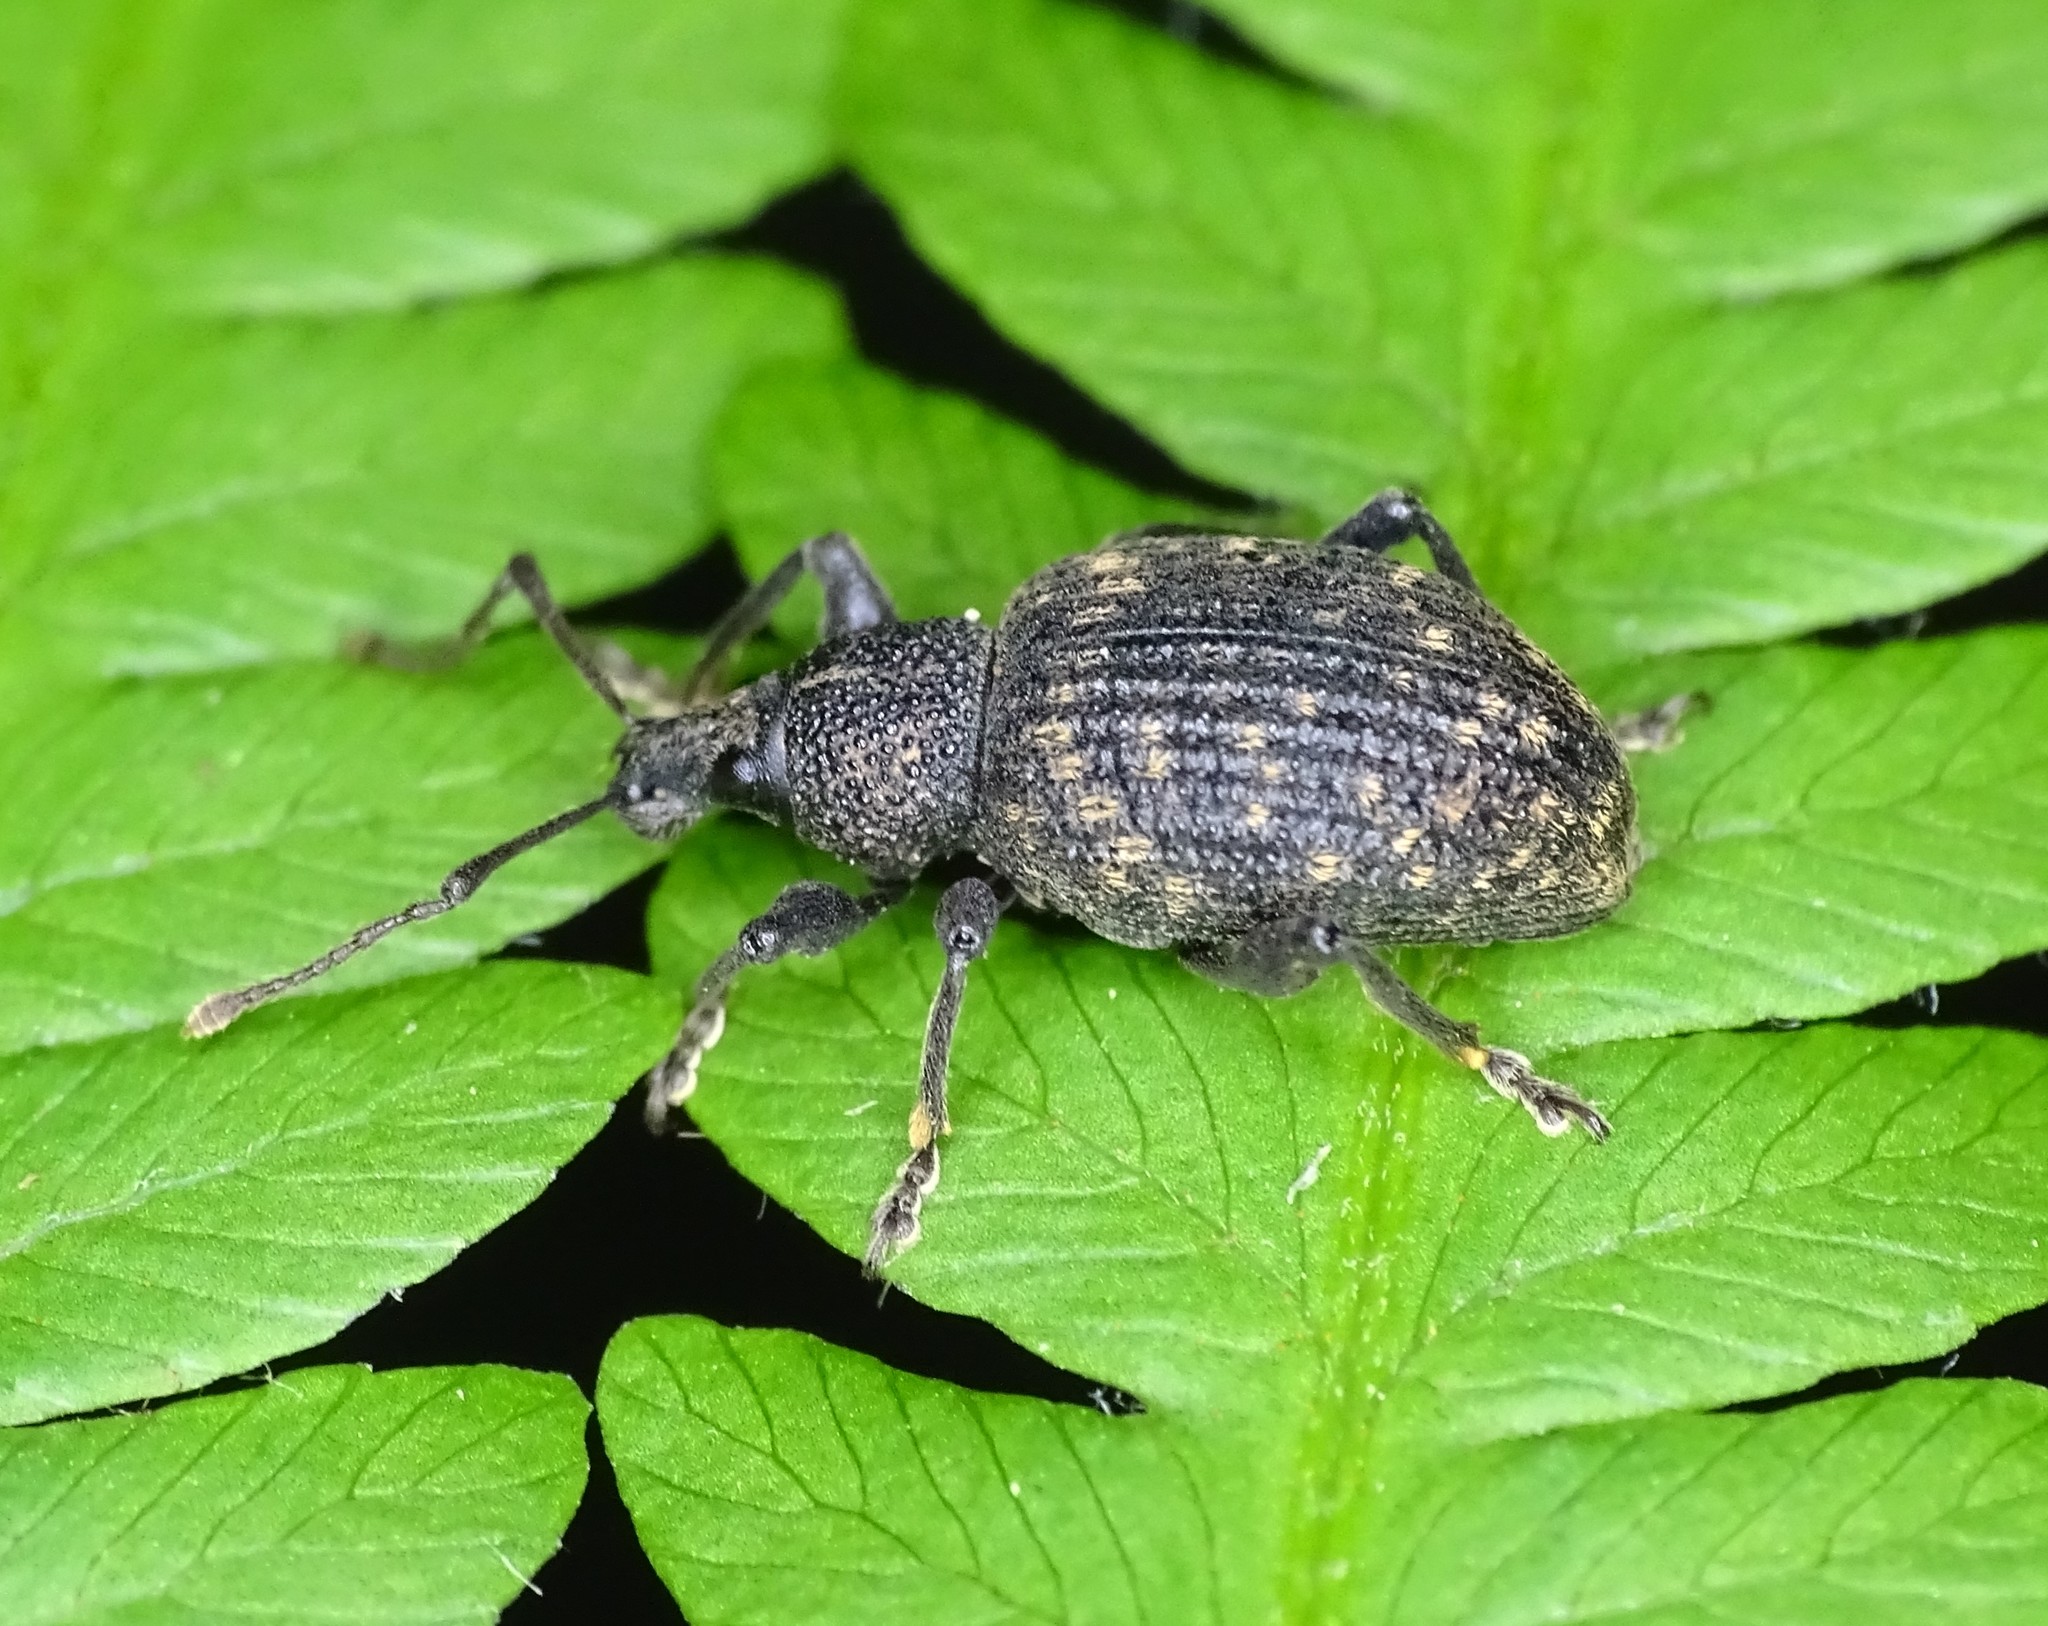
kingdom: Animalia
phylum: Arthropoda
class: Insecta
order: Coleoptera
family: Curculionidae
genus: Otiorhynchus
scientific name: Otiorhynchus sulcatus
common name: Black vine weevil
